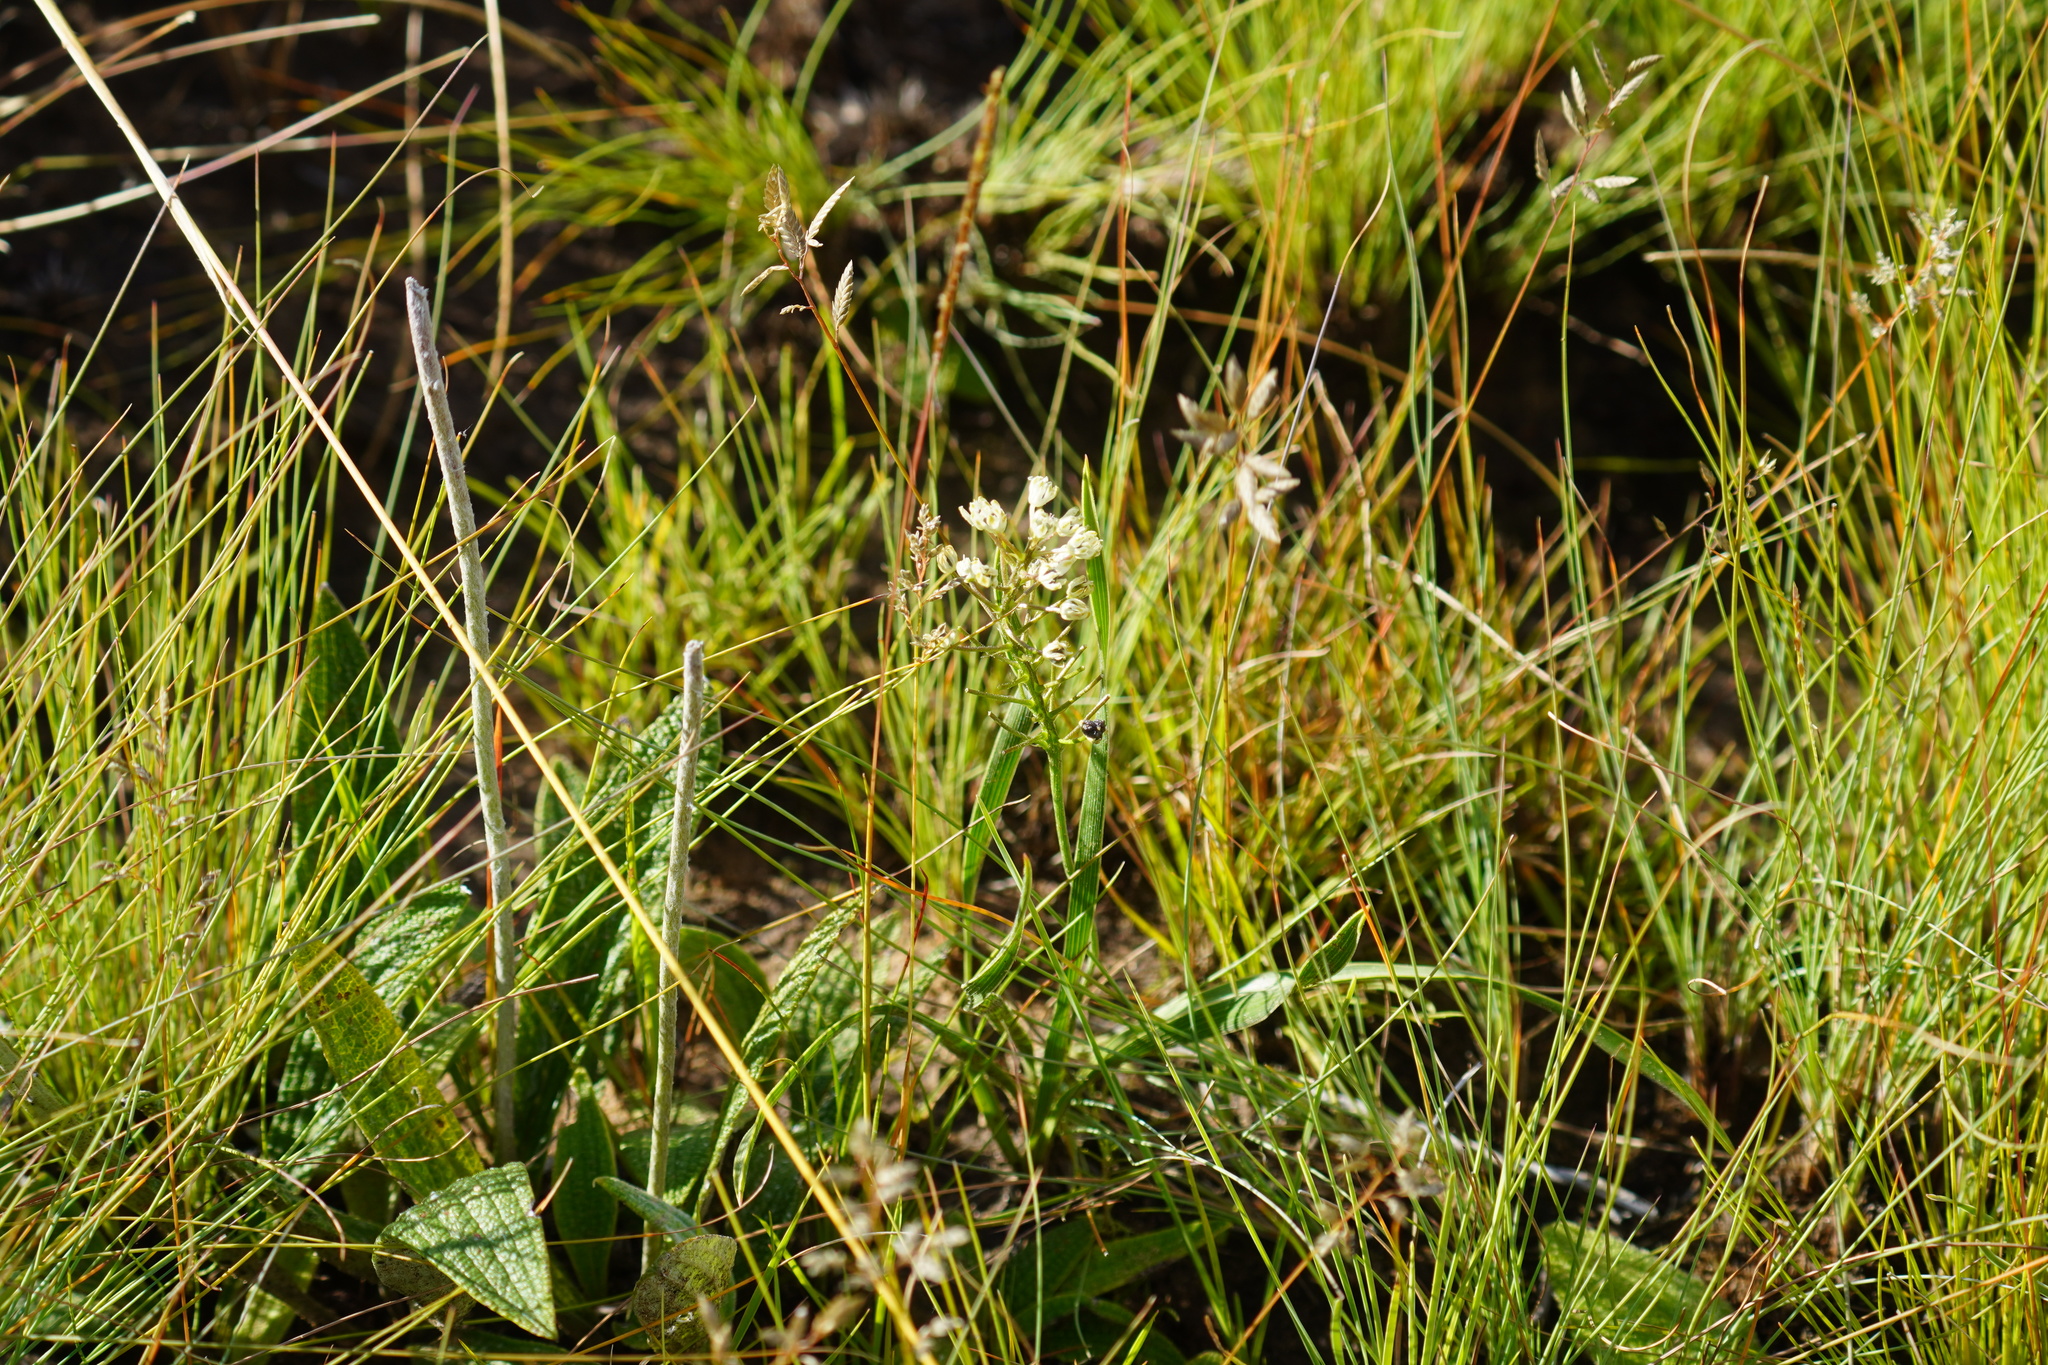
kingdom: Plantae
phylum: Tracheophyta
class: Liliopsida
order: Asparagales
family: Asparagaceae
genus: Schizocarphus
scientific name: Schizocarphus nervosus
